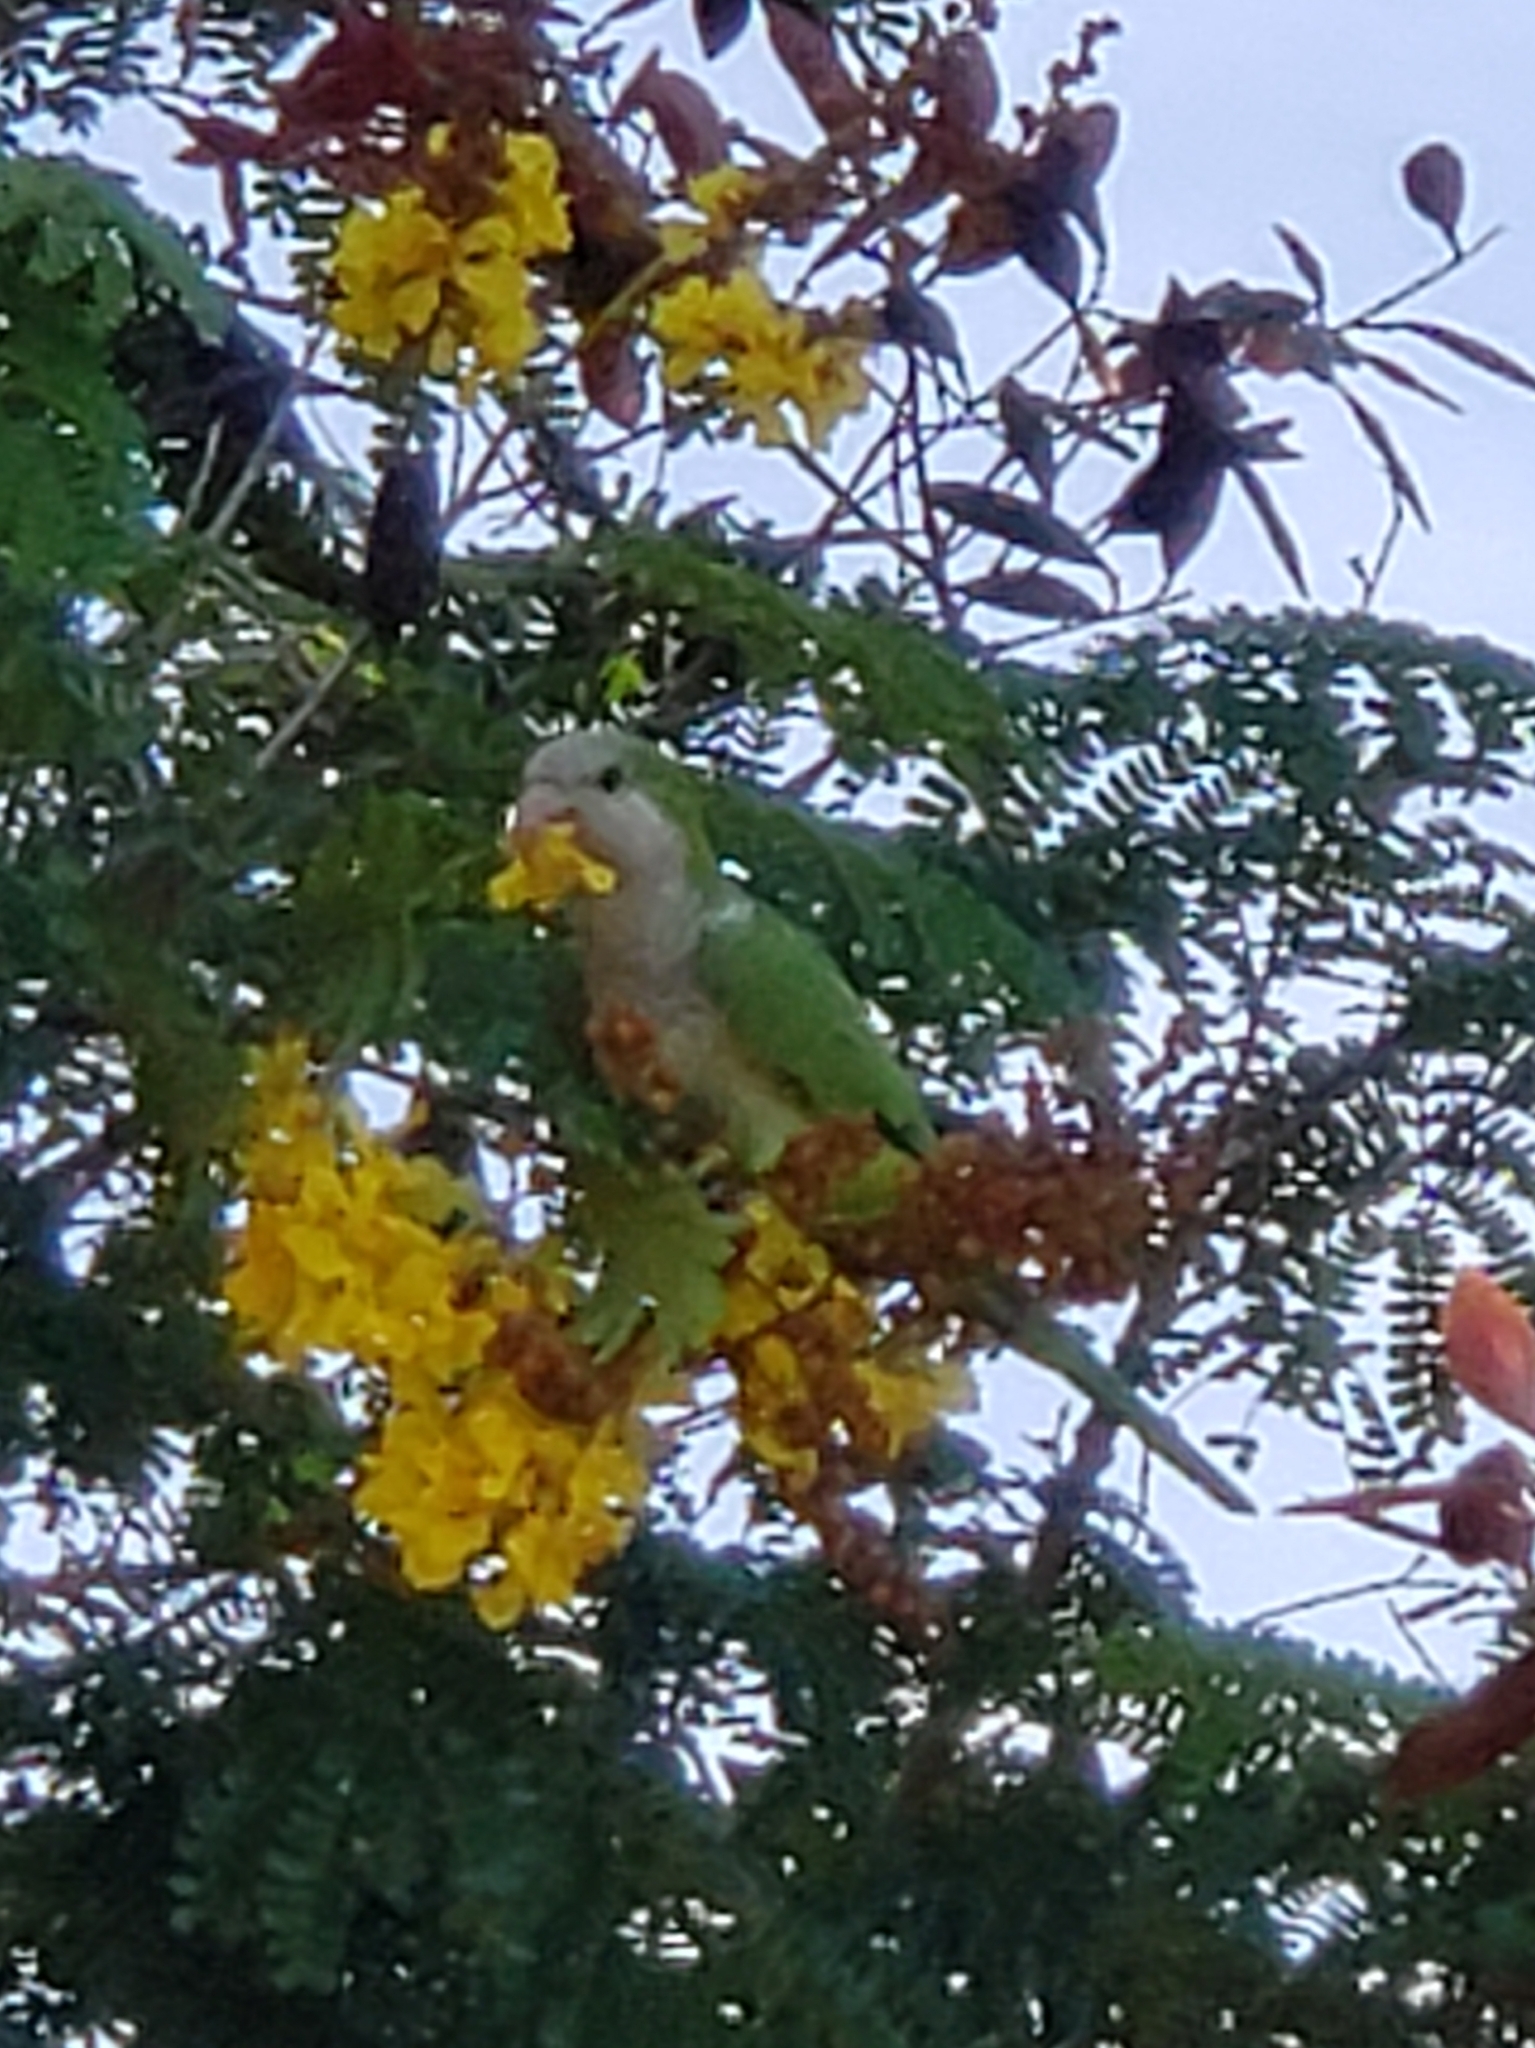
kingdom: Animalia
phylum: Chordata
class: Aves
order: Psittaciformes
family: Psittacidae
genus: Myiopsitta
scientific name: Myiopsitta monachus
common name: Monk parakeet
